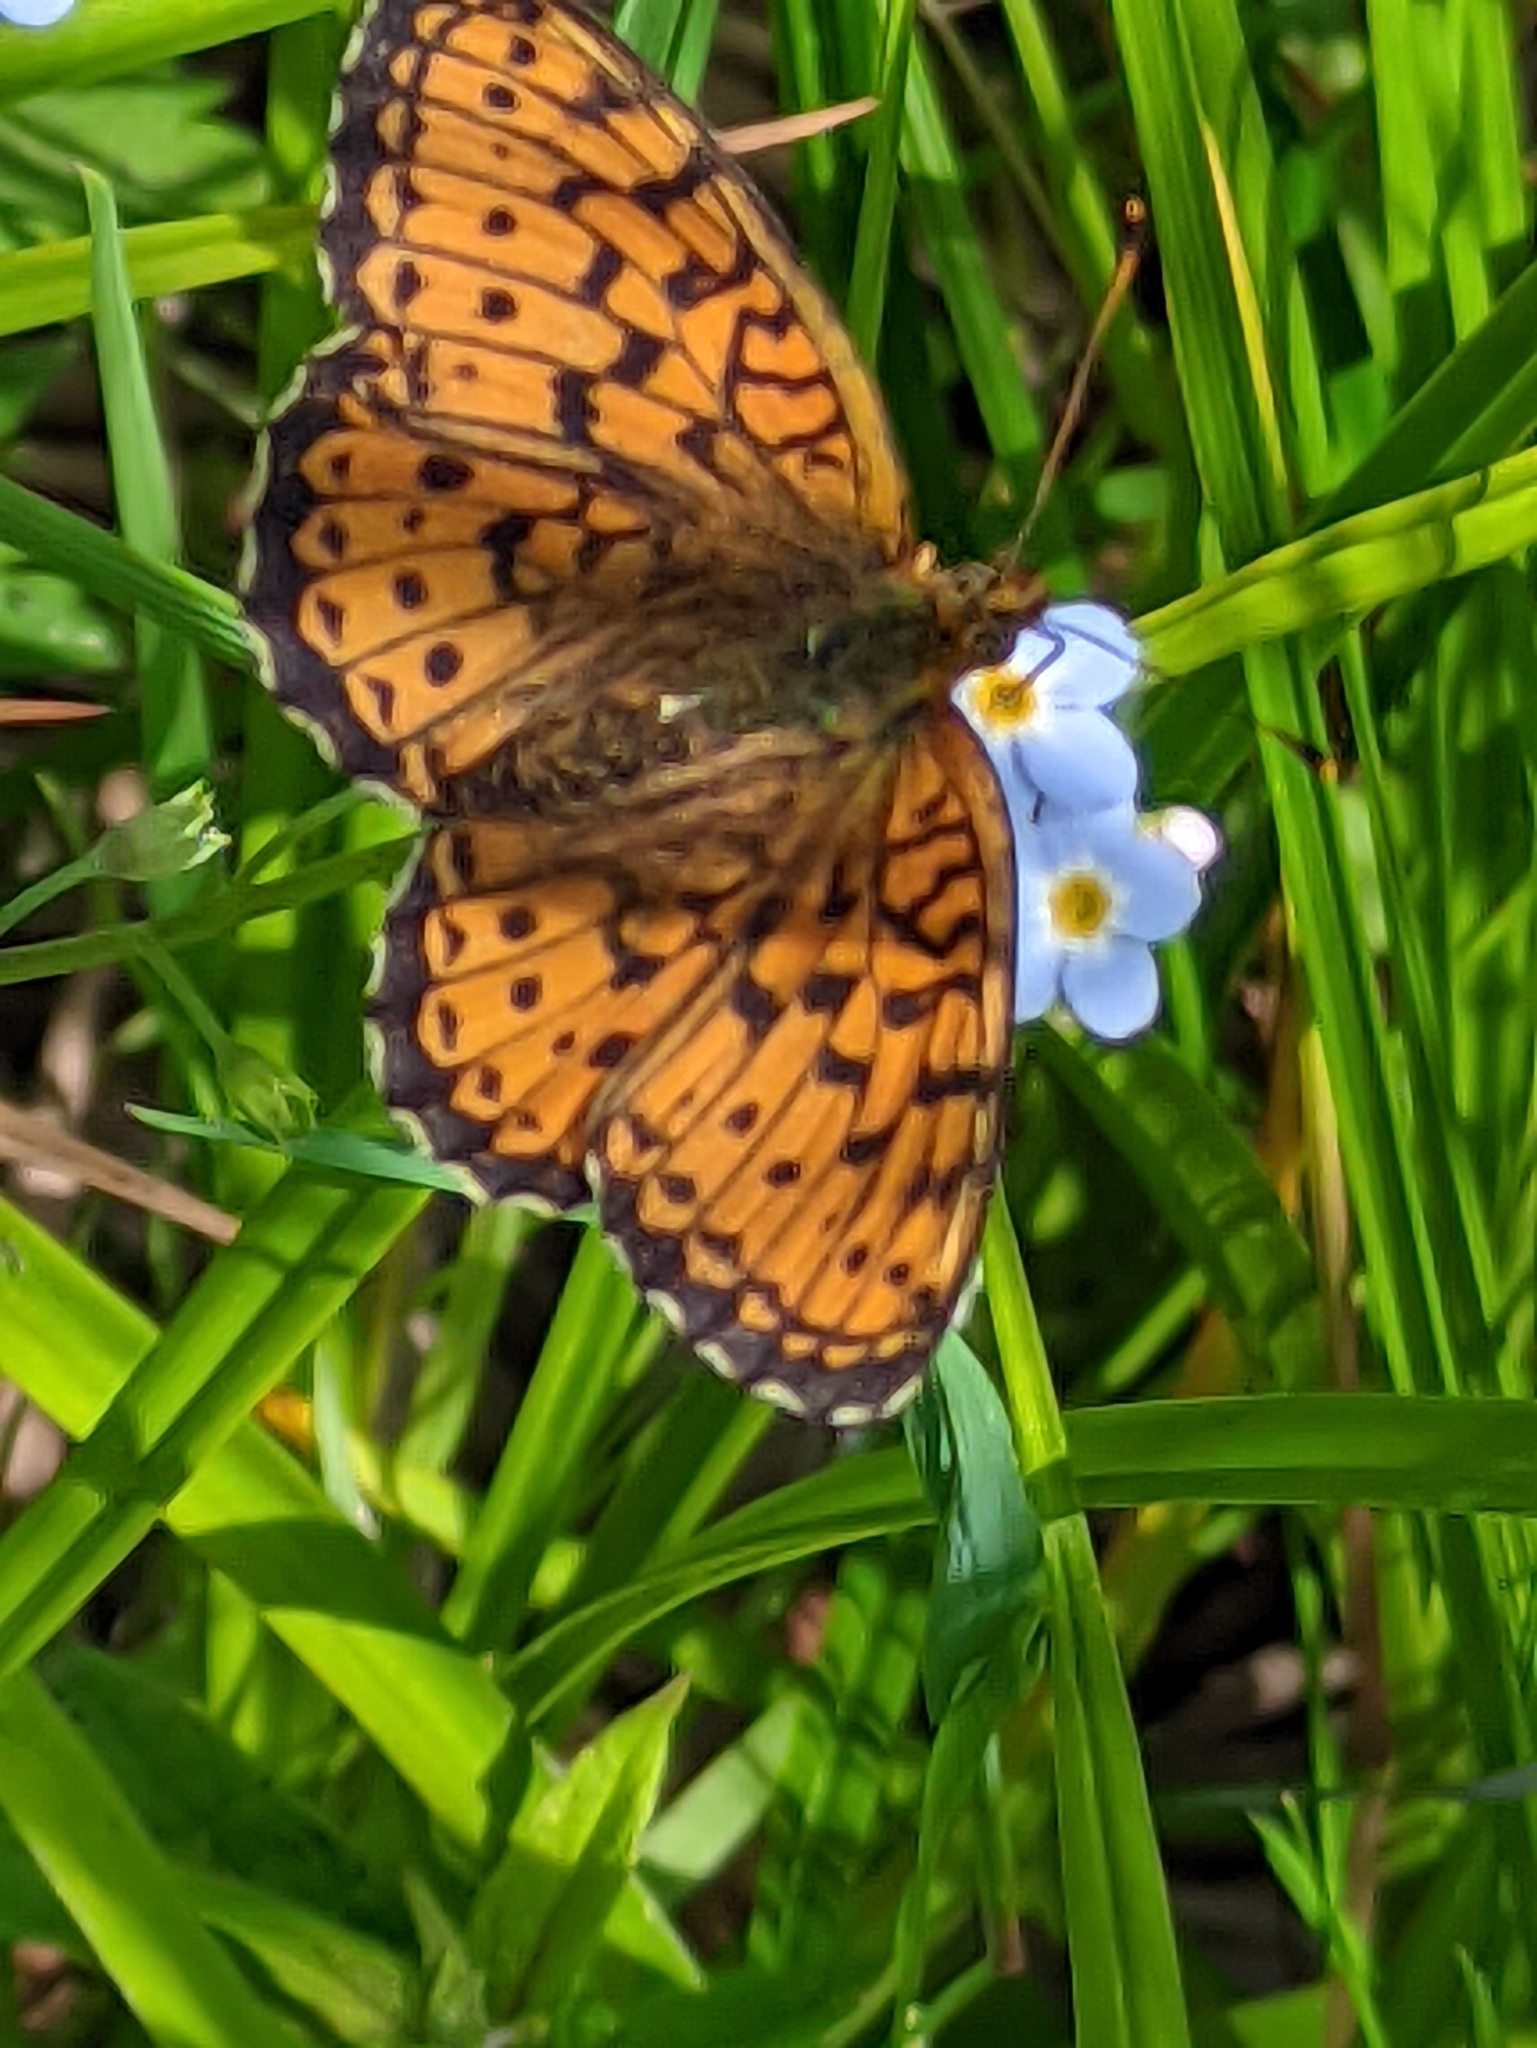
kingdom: Animalia
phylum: Arthropoda
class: Insecta
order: Lepidoptera
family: Nymphalidae
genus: Brenthis
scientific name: Brenthis ino
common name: Lesser marbled fritillary
